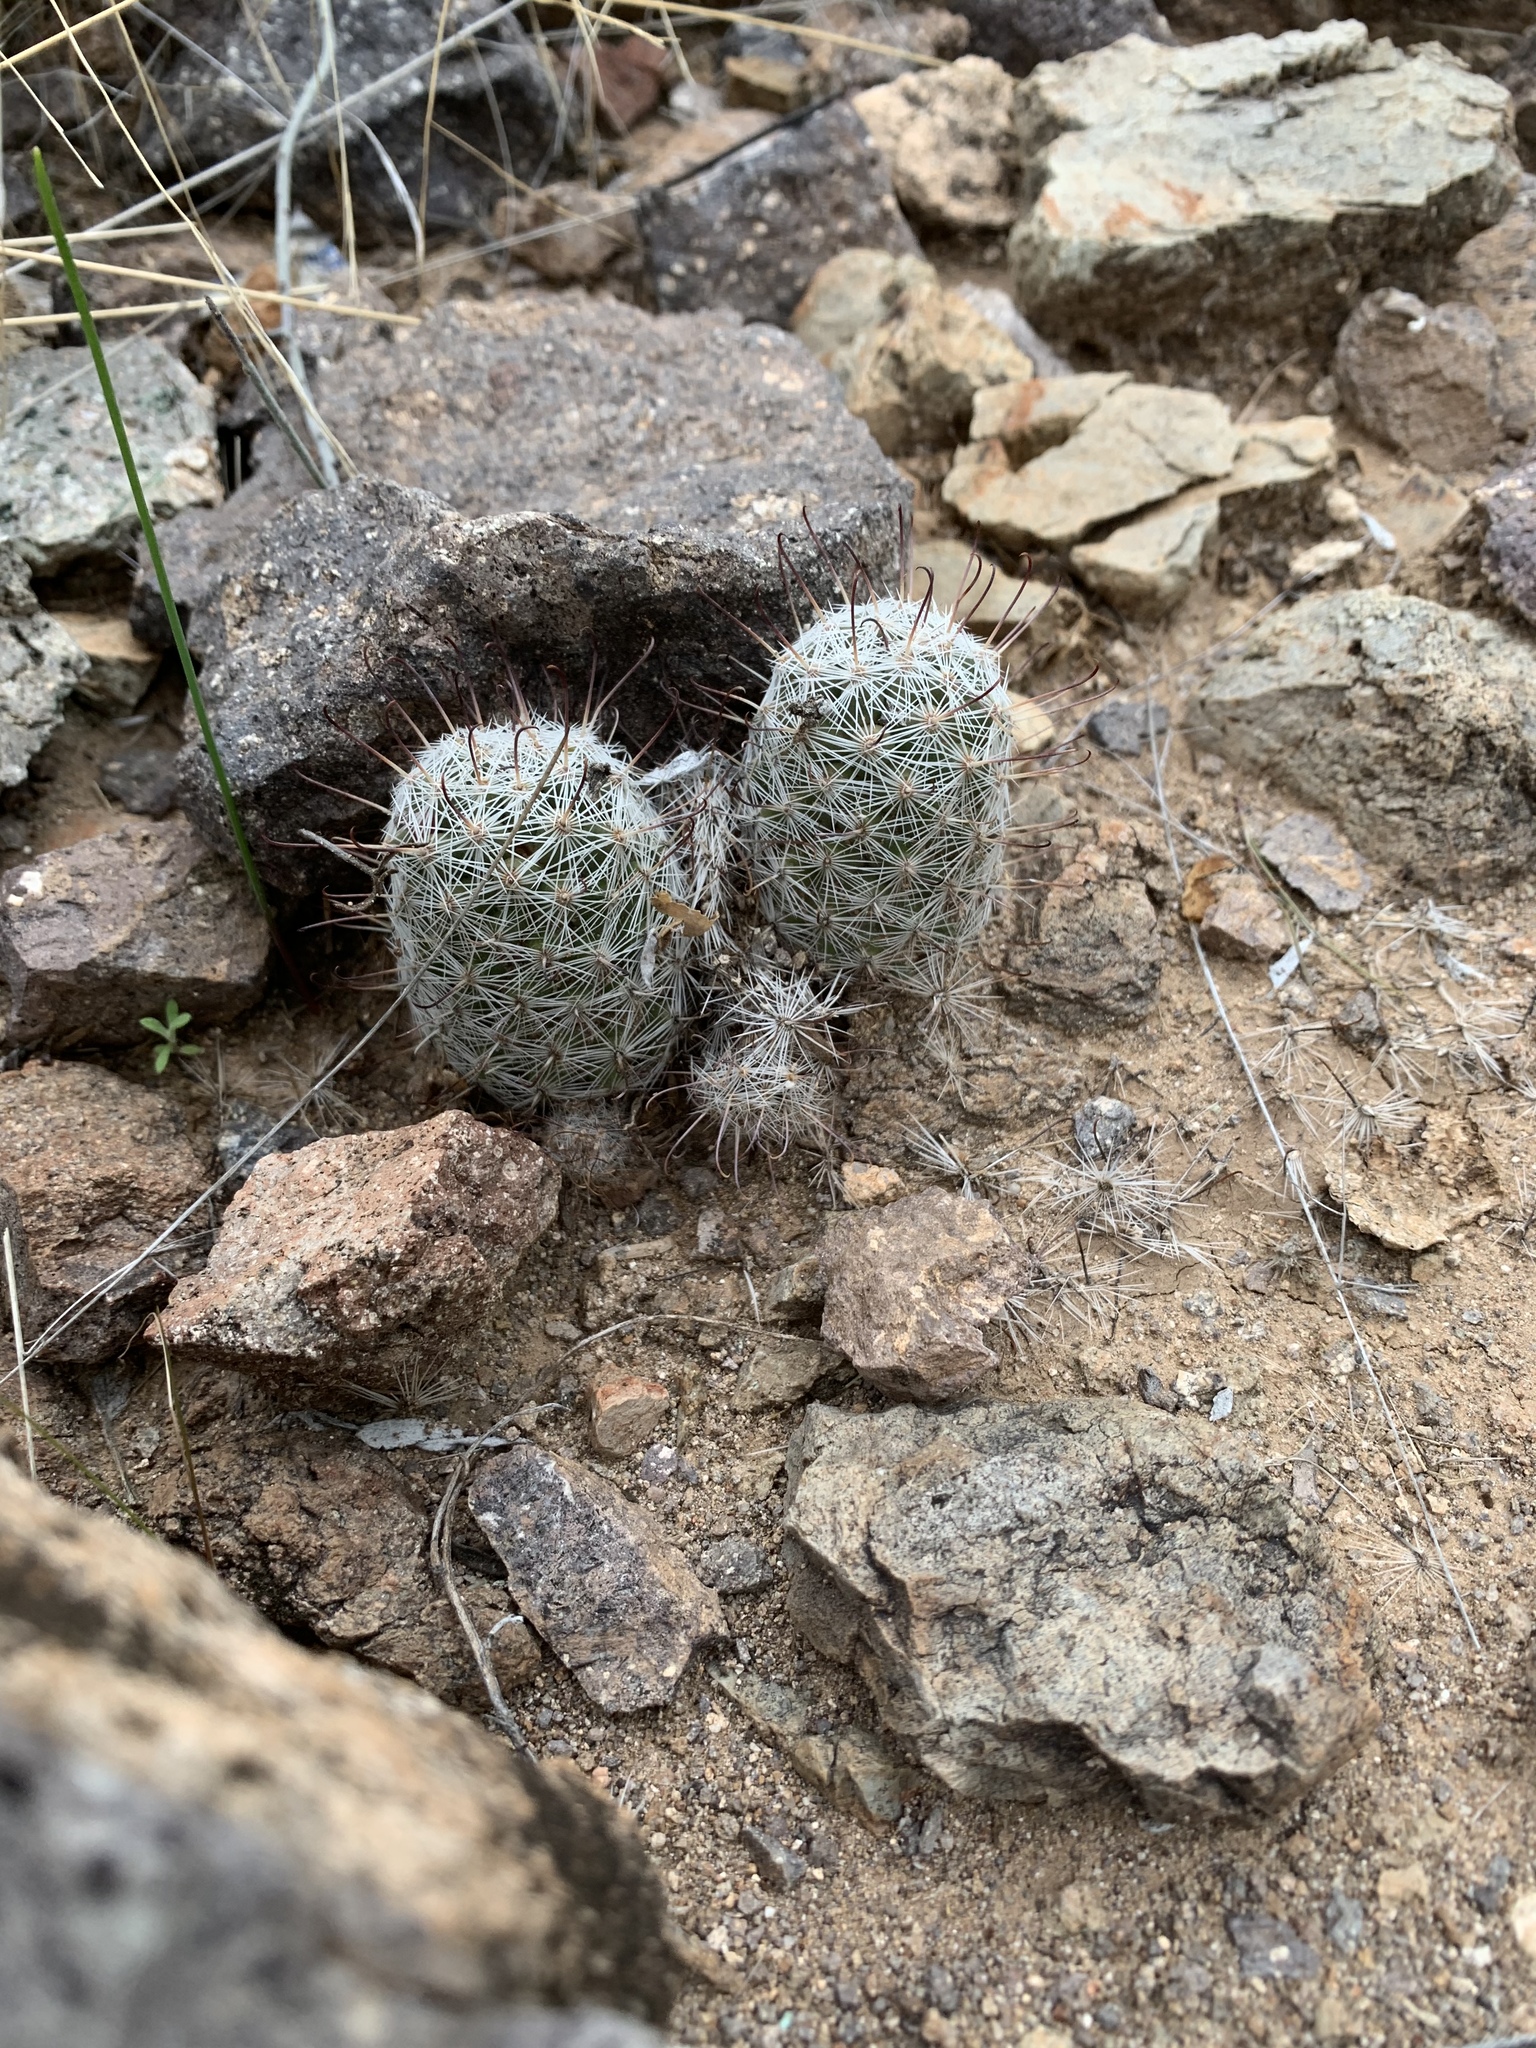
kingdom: Plantae
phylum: Tracheophyta
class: Magnoliopsida
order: Caryophyllales
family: Cactaceae
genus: Cochemiea
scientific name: Cochemiea grahamii
